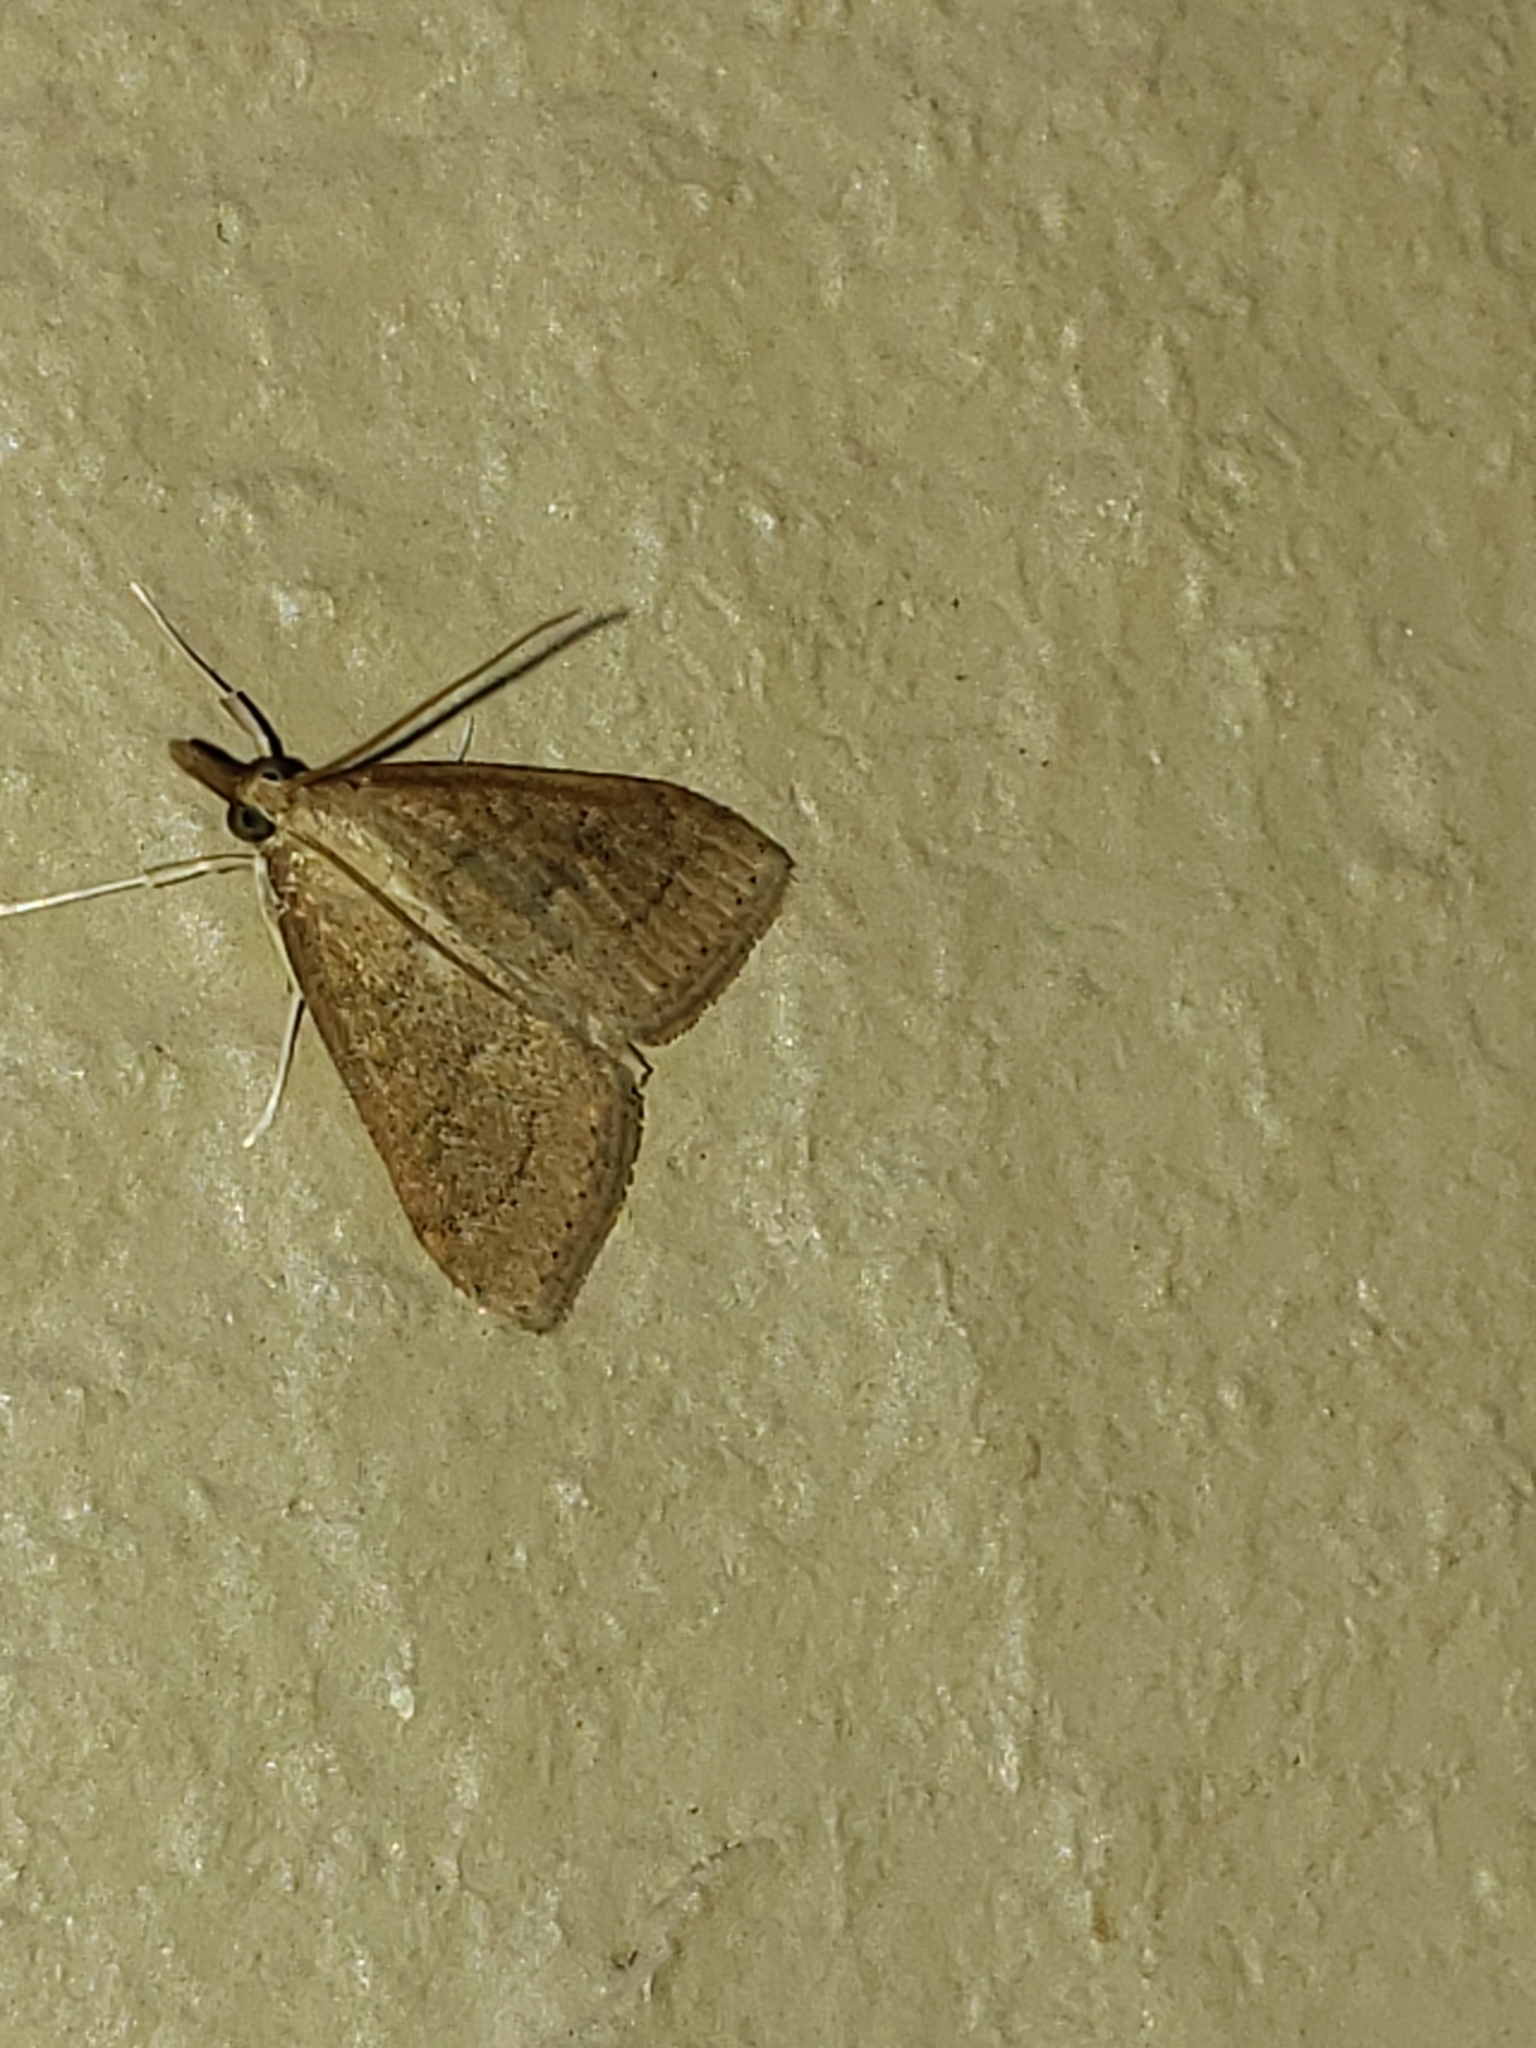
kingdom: Animalia
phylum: Arthropoda
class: Insecta
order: Lepidoptera
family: Crambidae
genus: Udea
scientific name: Udea rubigalis
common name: Celery leaftier moth
